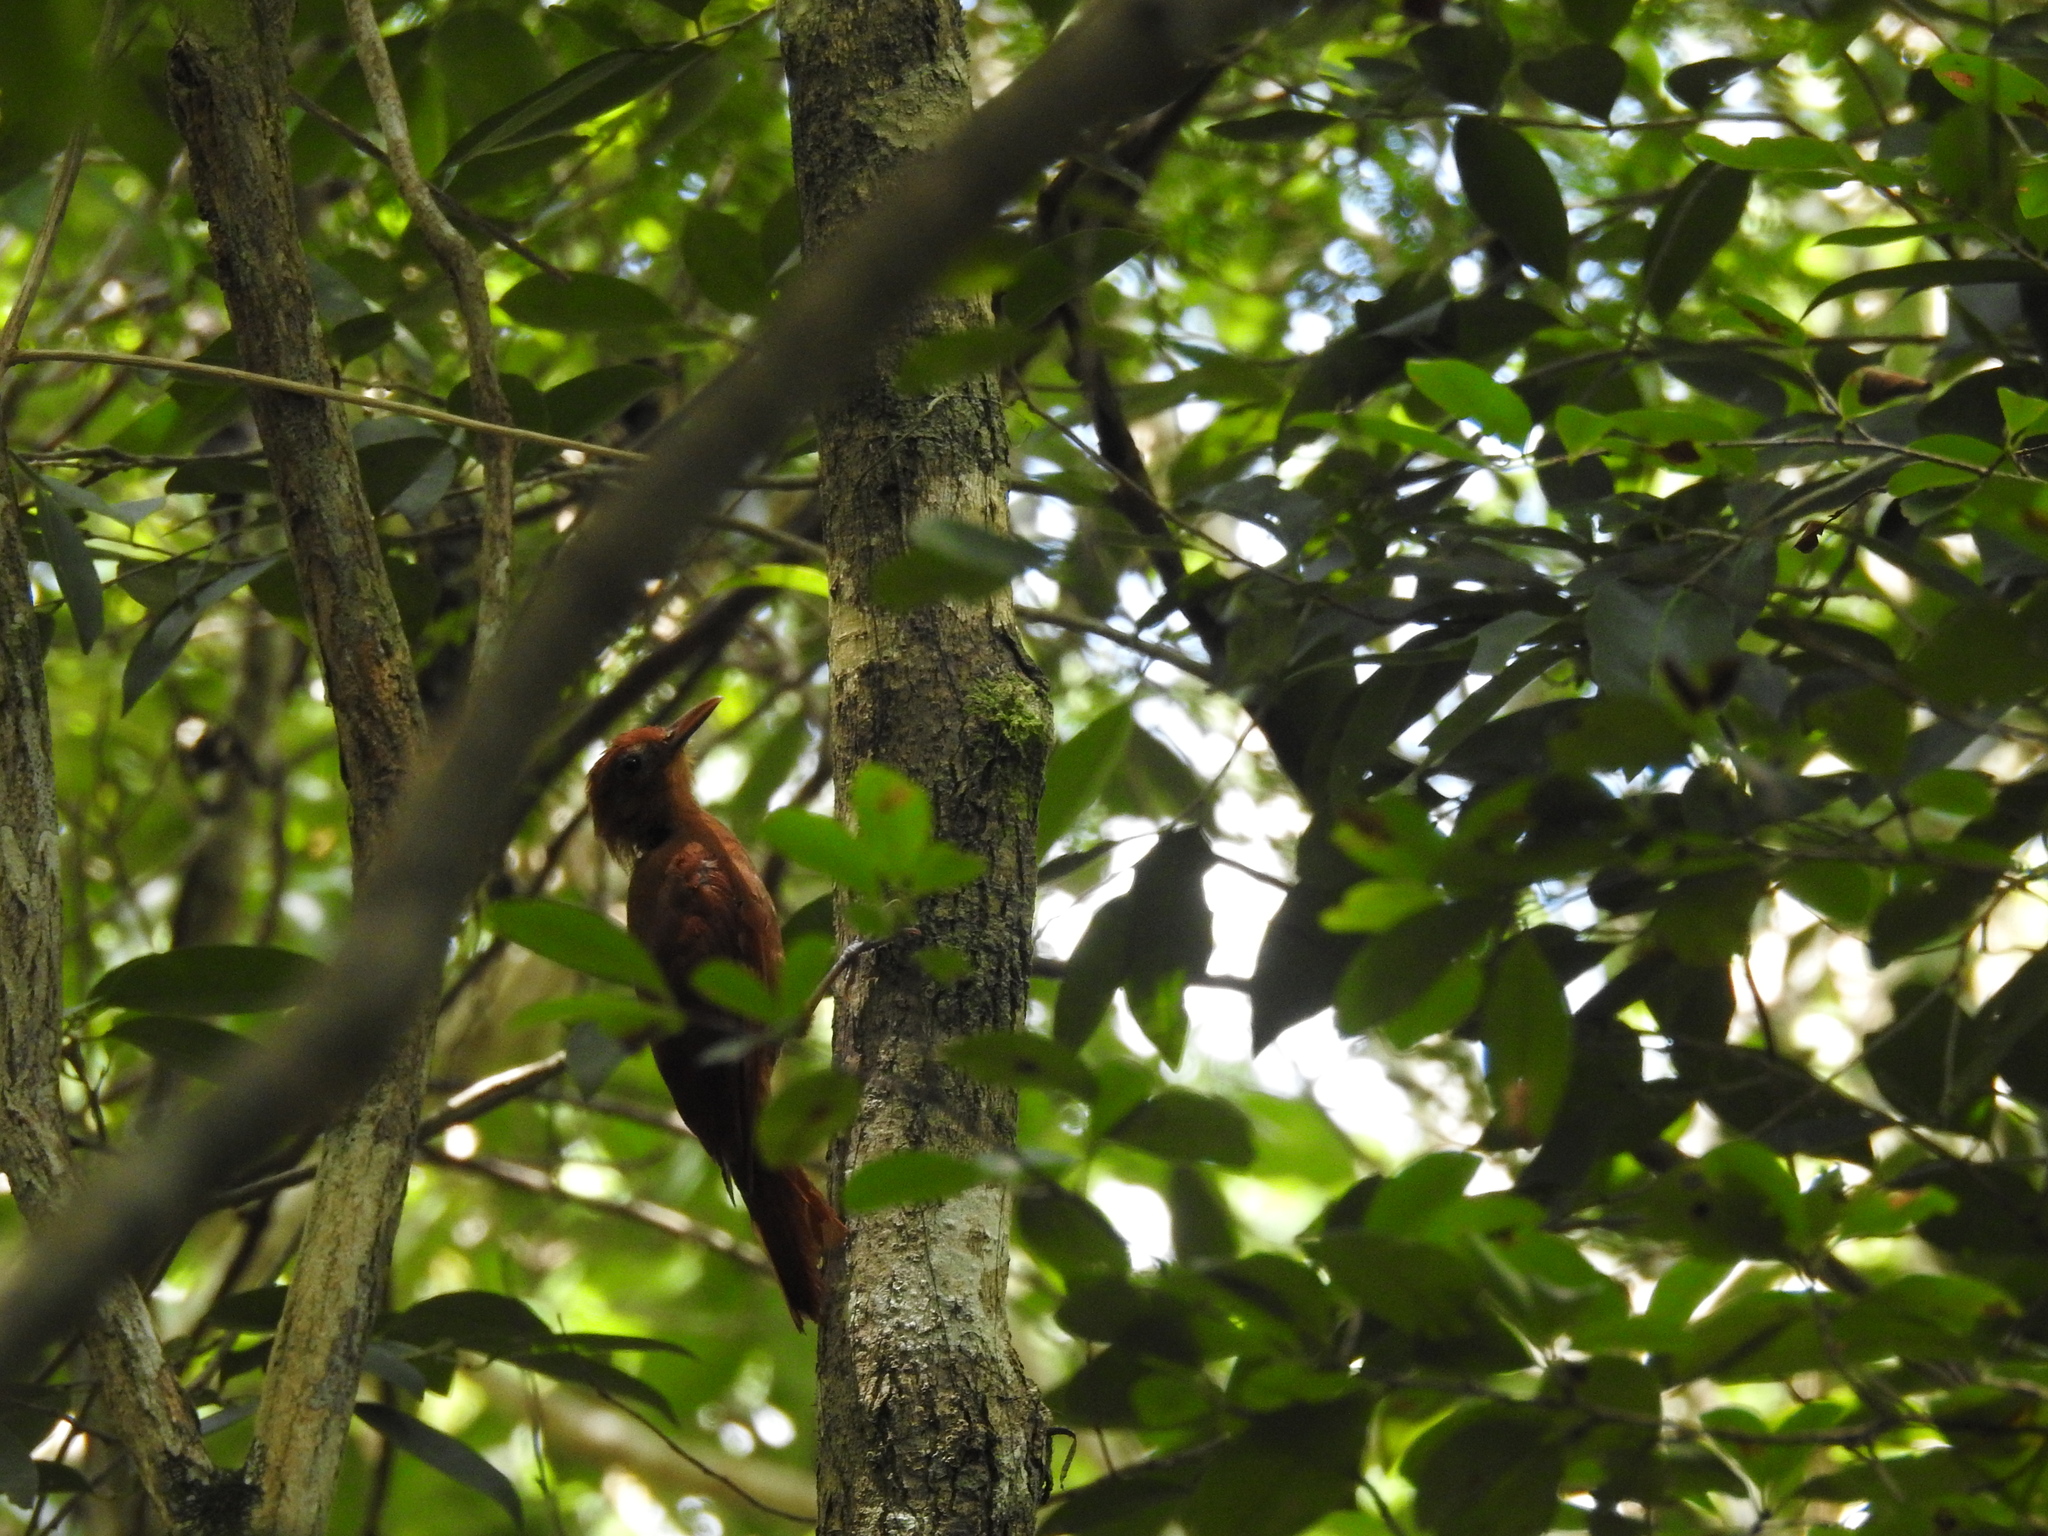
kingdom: Animalia
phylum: Chordata
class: Aves
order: Passeriformes
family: Furnariidae
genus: Dendrocincla
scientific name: Dendrocincla homochroa
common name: Ruddy woodcreeper
